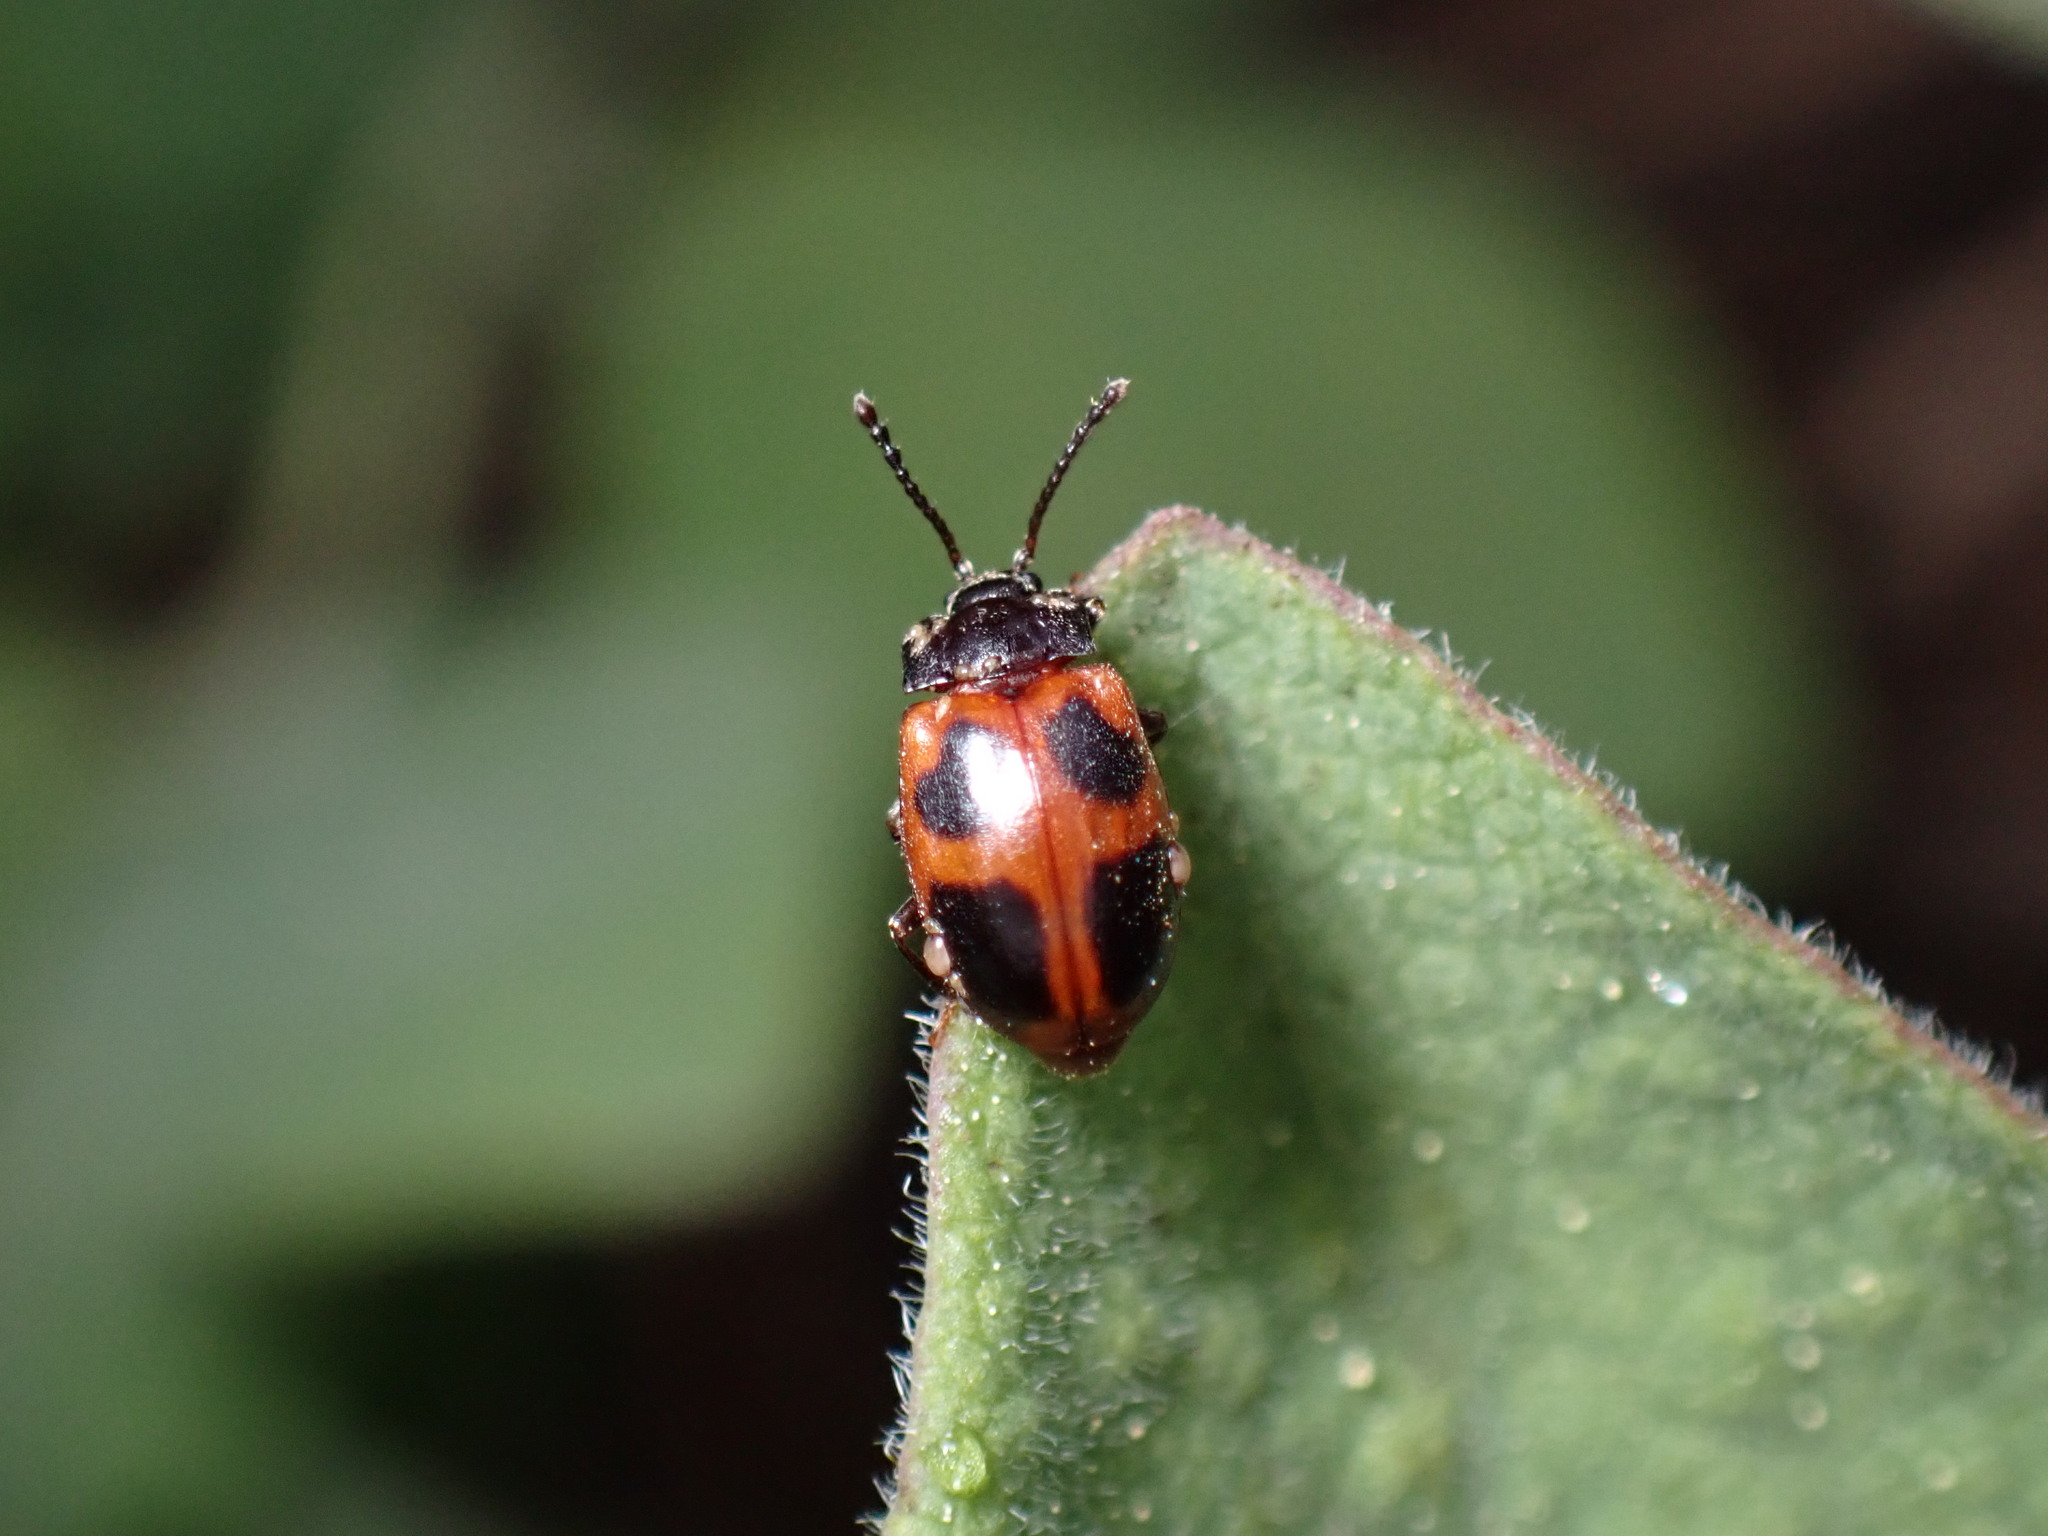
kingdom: Animalia
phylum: Arthropoda
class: Insecta
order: Coleoptera
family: Endomychidae
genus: Endomychus
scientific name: Endomychus limbatus
